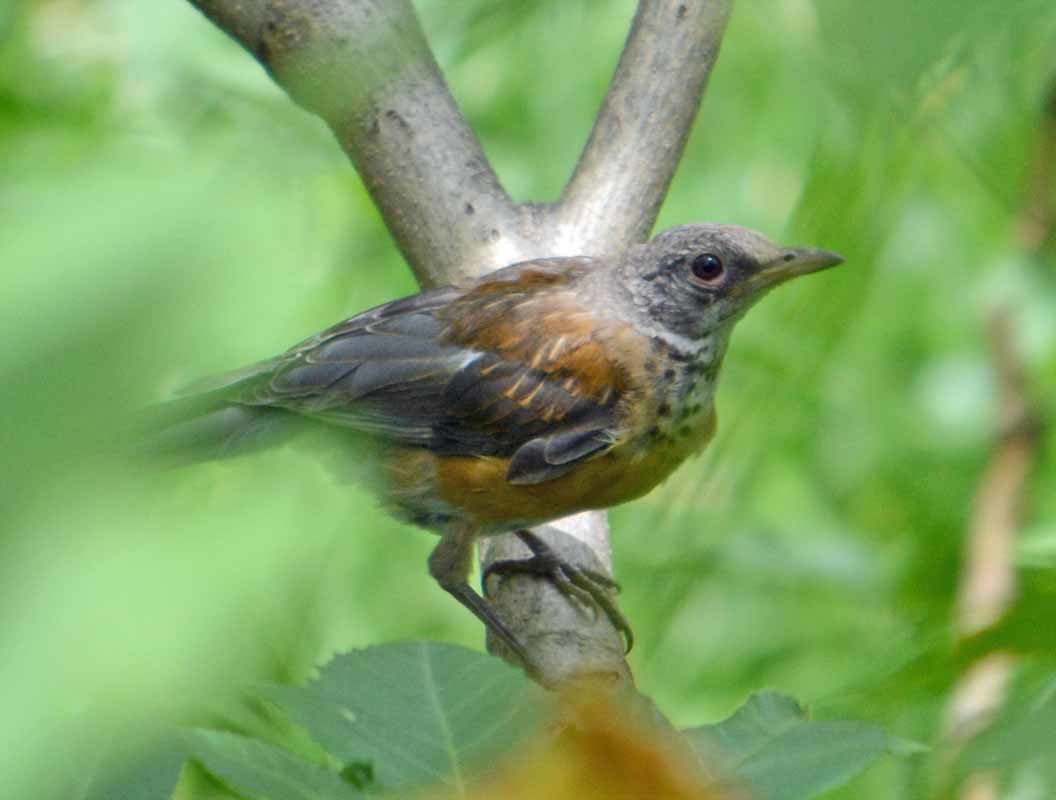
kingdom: Animalia
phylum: Chordata
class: Aves
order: Passeriformes
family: Turdidae
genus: Turdus
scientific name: Turdus rufopalliatus
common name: Rufous-backed robin
